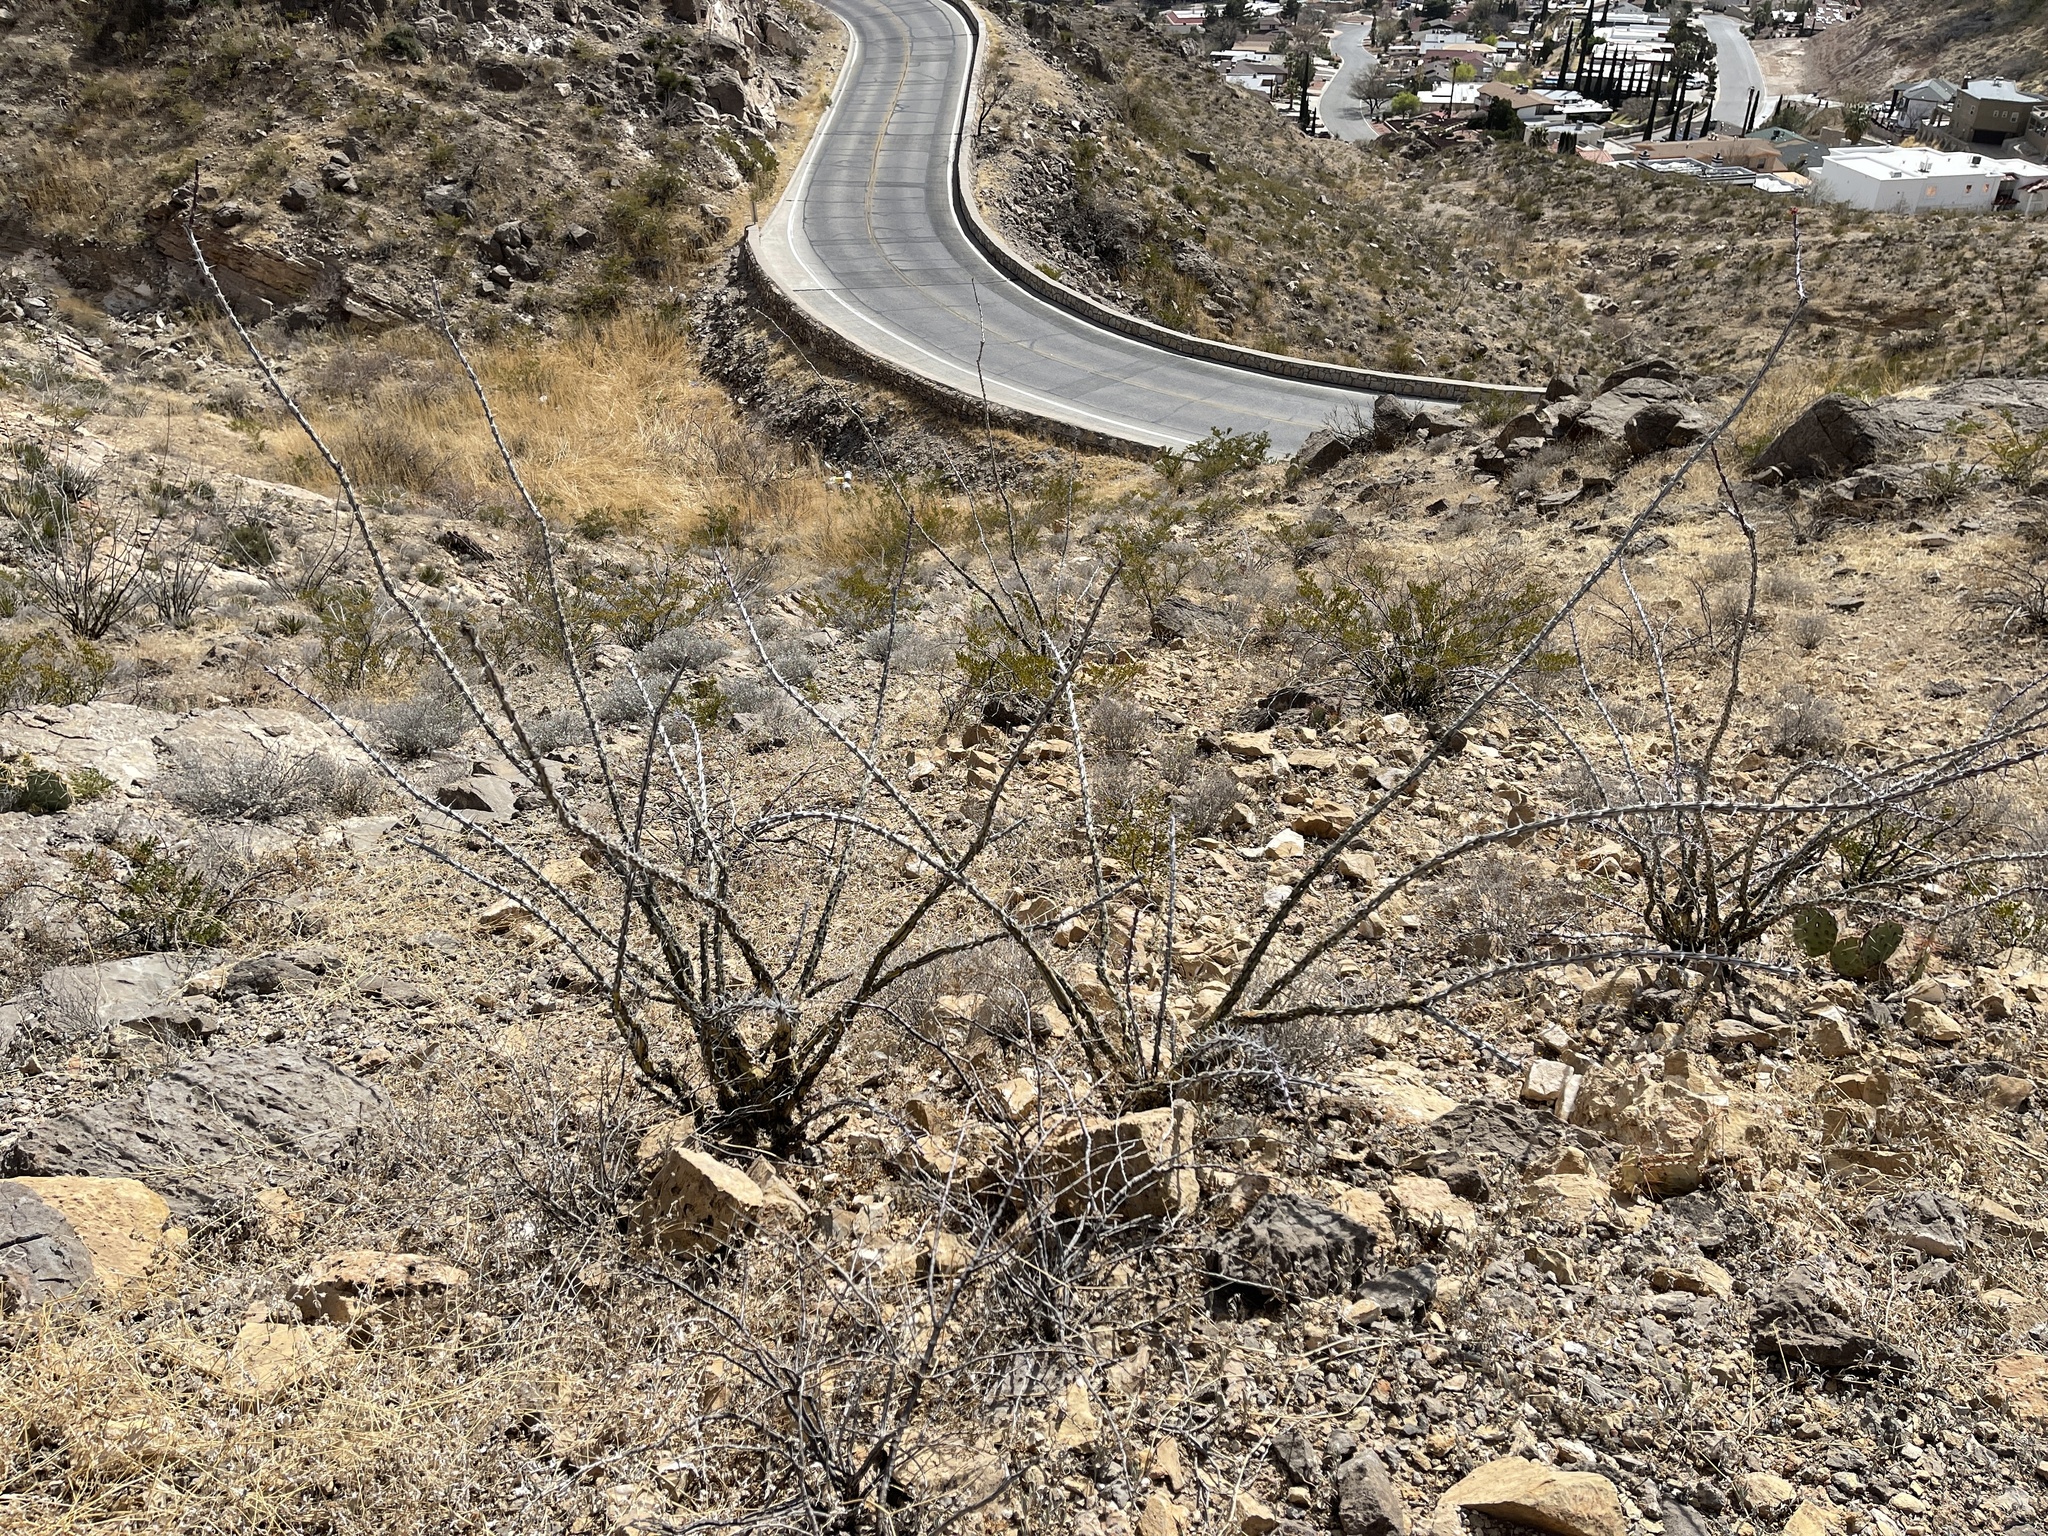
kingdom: Plantae
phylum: Tracheophyta
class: Magnoliopsida
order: Ericales
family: Fouquieriaceae
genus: Fouquieria
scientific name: Fouquieria splendens
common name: Vine-cactus
